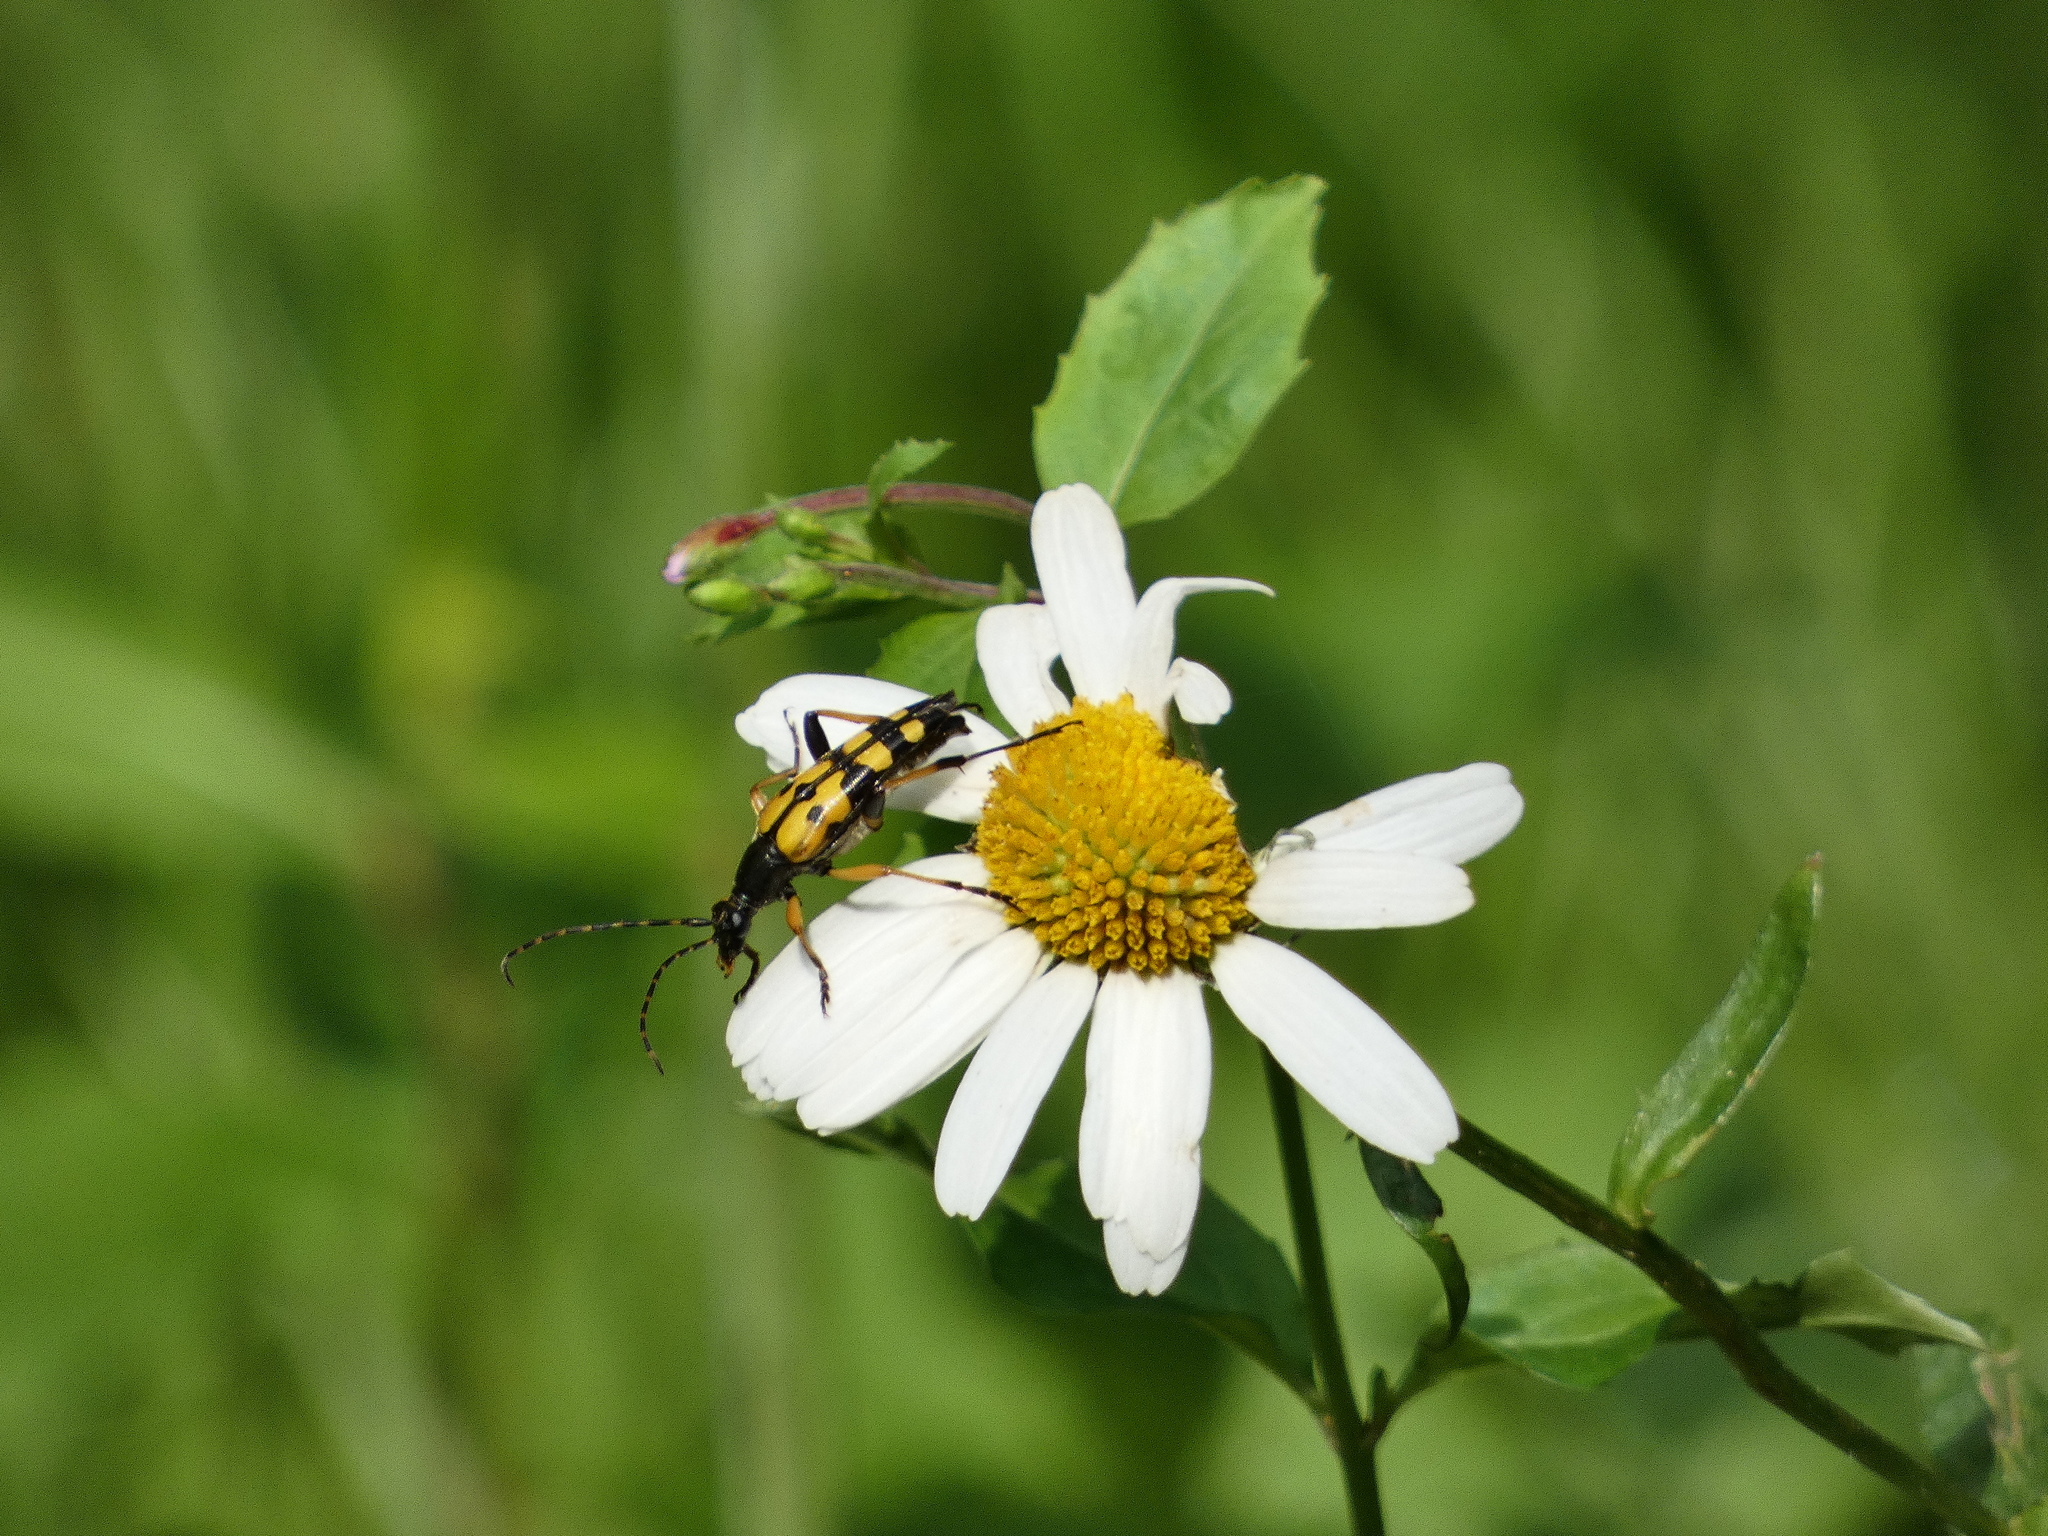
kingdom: Animalia
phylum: Arthropoda
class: Insecta
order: Coleoptera
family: Cerambycidae
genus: Rutpela
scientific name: Rutpela maculata
